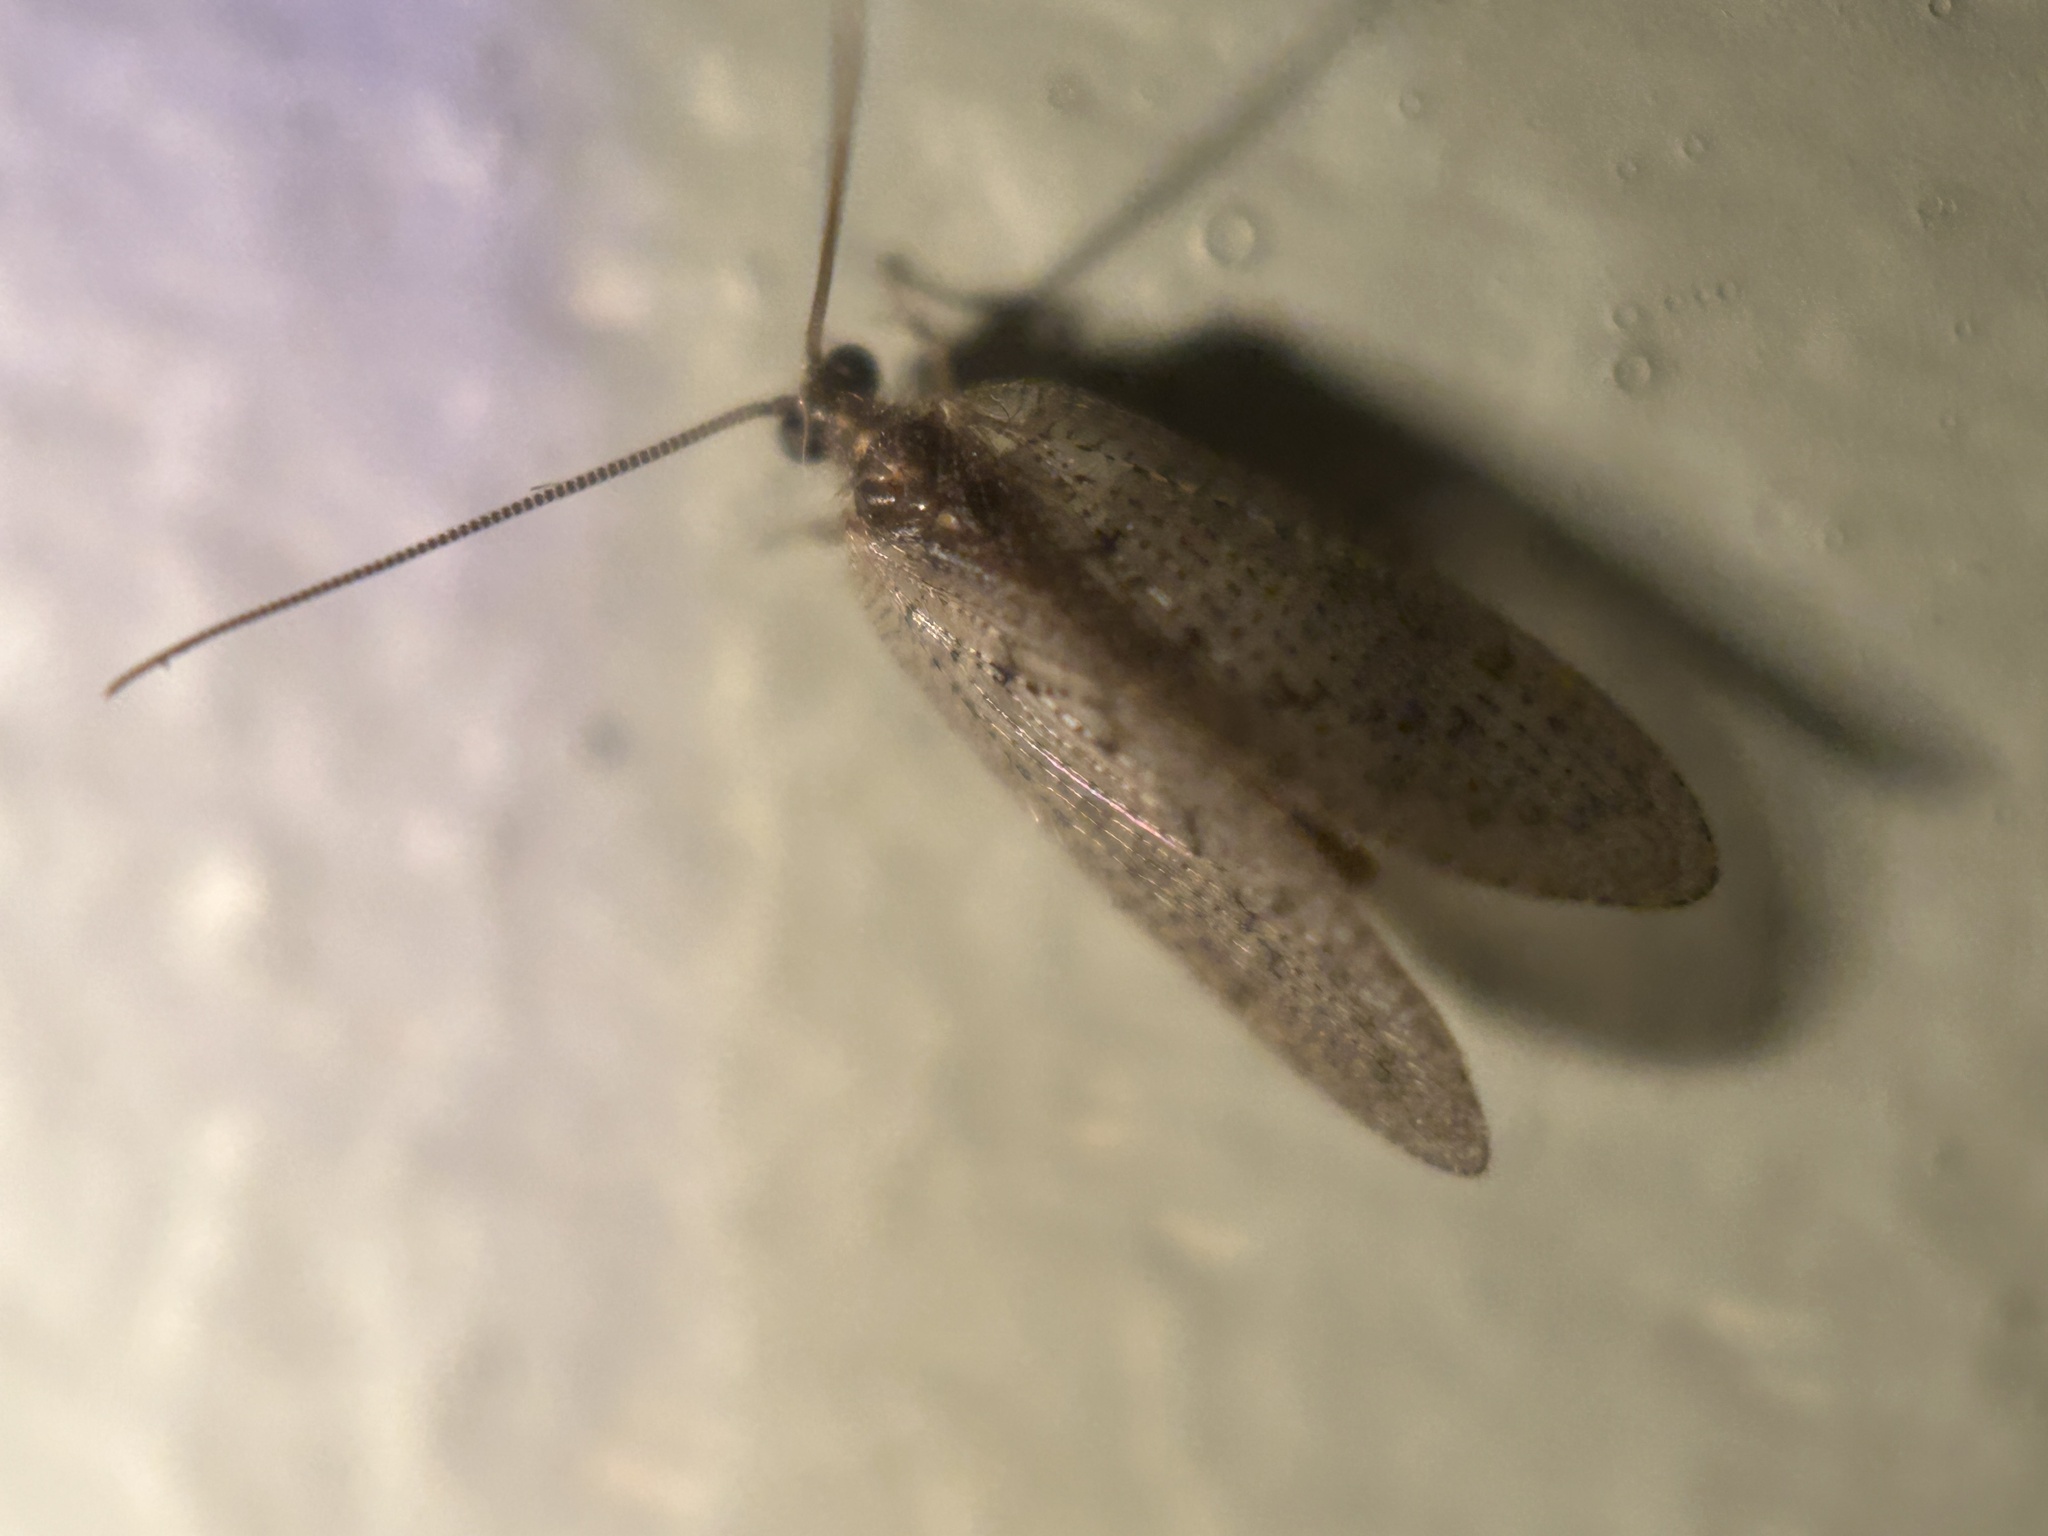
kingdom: Animalia
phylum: Arthropoda
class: Insecta
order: Neuroptera
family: Hemerobiidae
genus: Hemerobius
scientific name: Hemerobius stigma
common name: Brown pine lacewing
